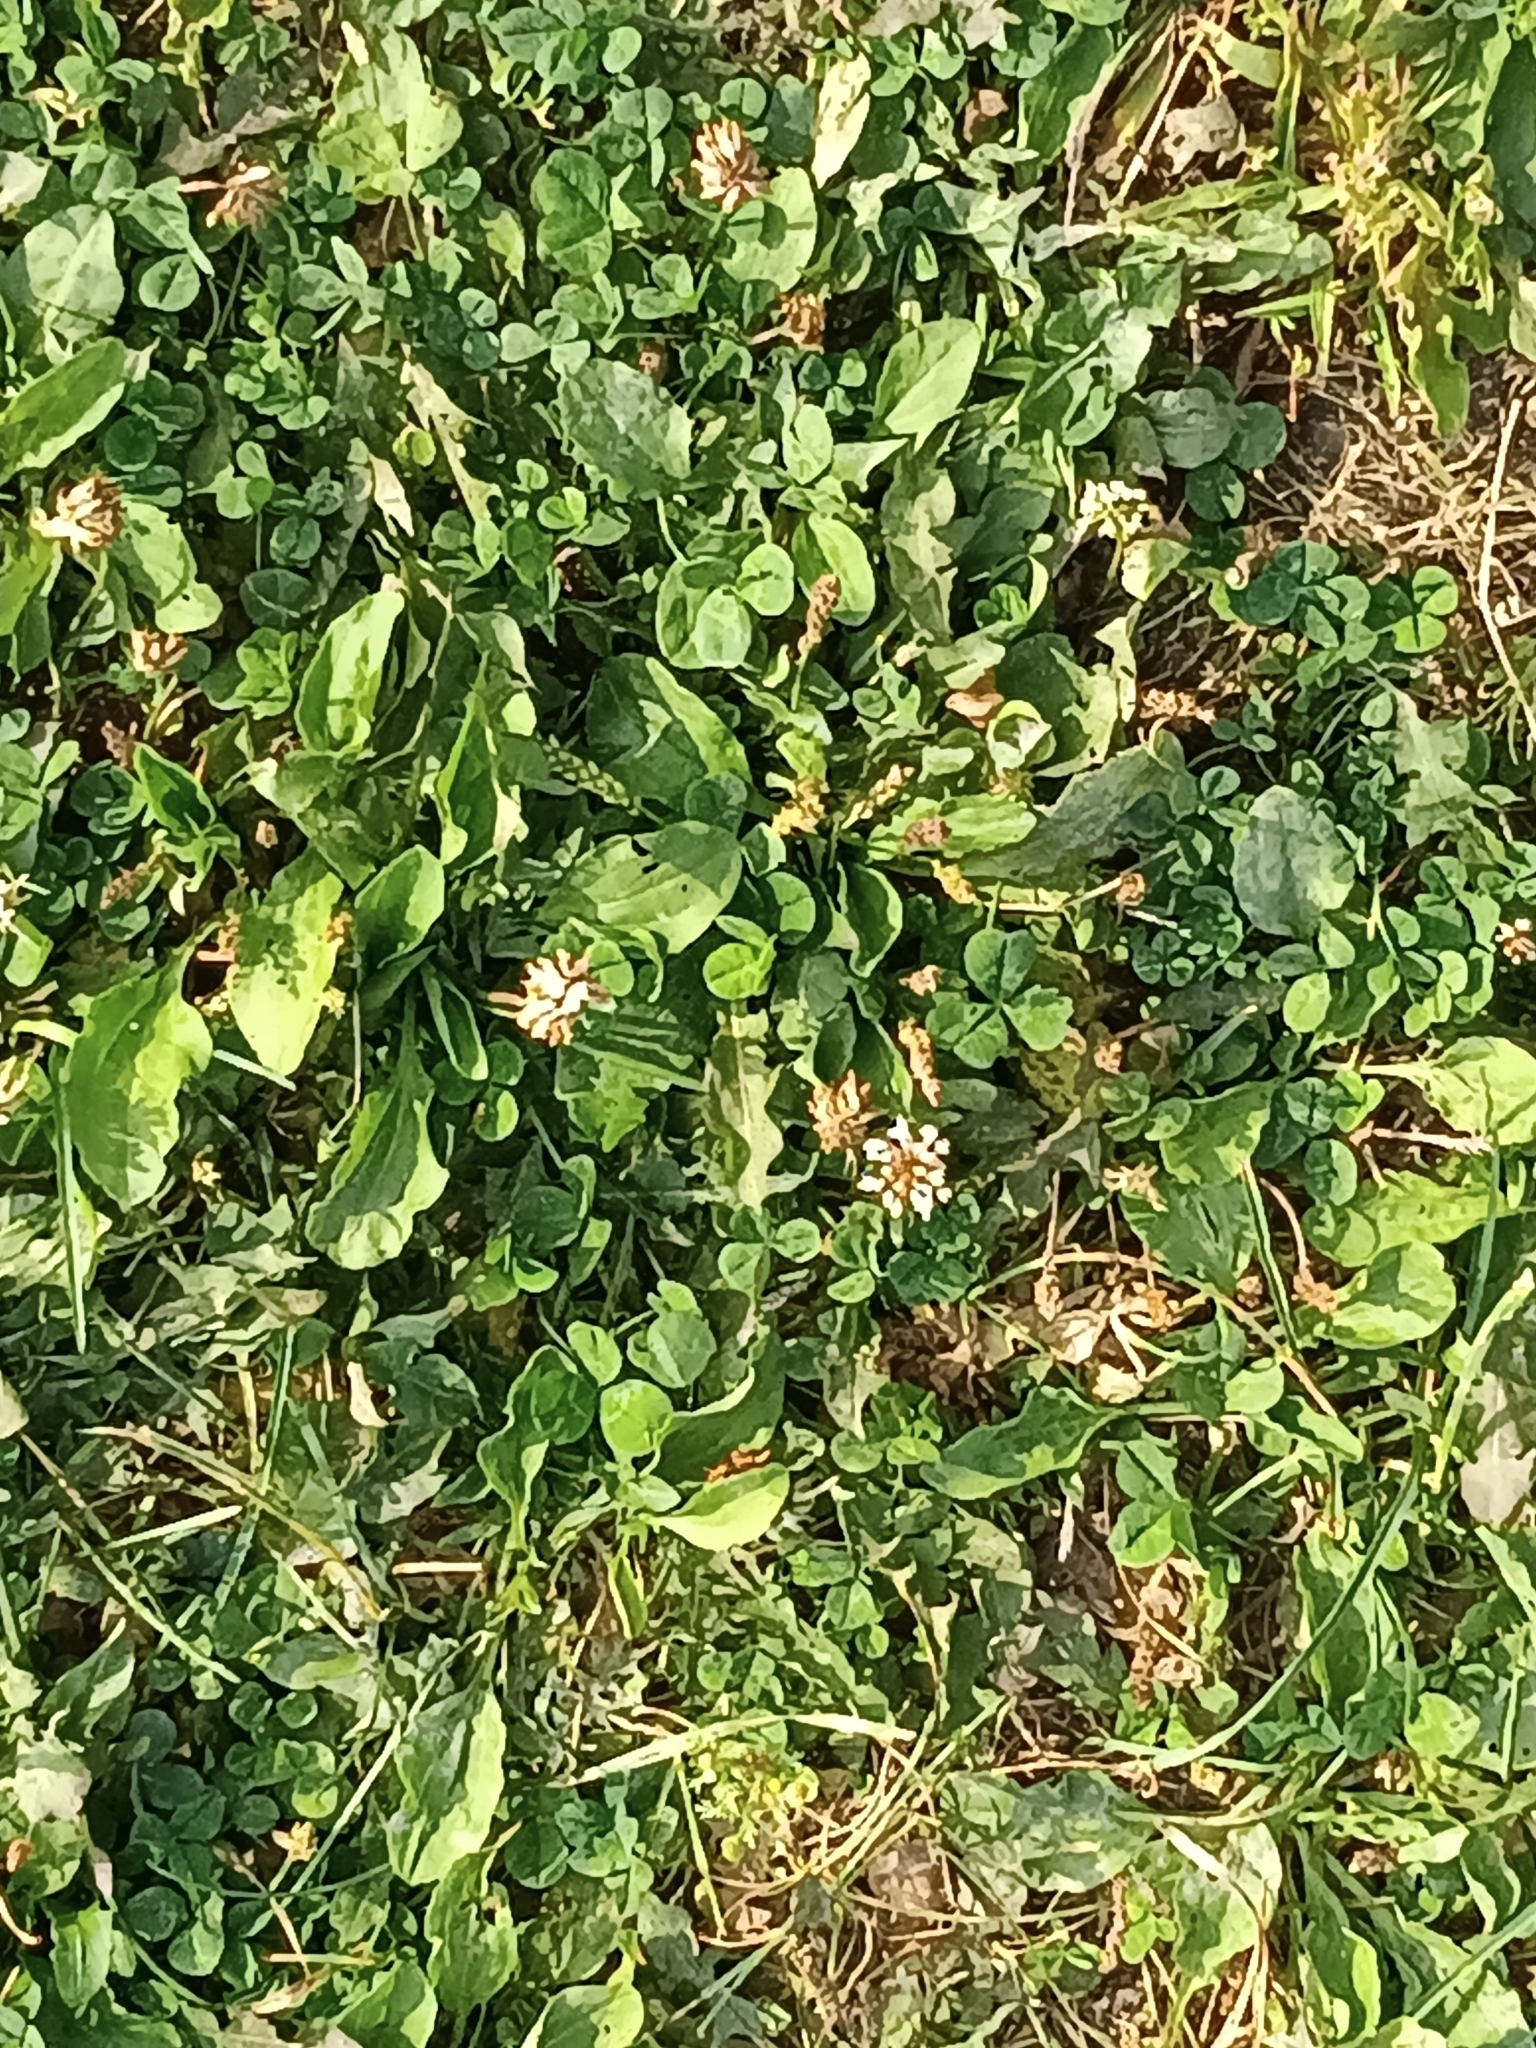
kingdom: Plantae
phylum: Tracheophyta
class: Magnoliopsida
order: Fabales
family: Fabaceae
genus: Trifolium
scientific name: Trifolium repens
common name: White clover
